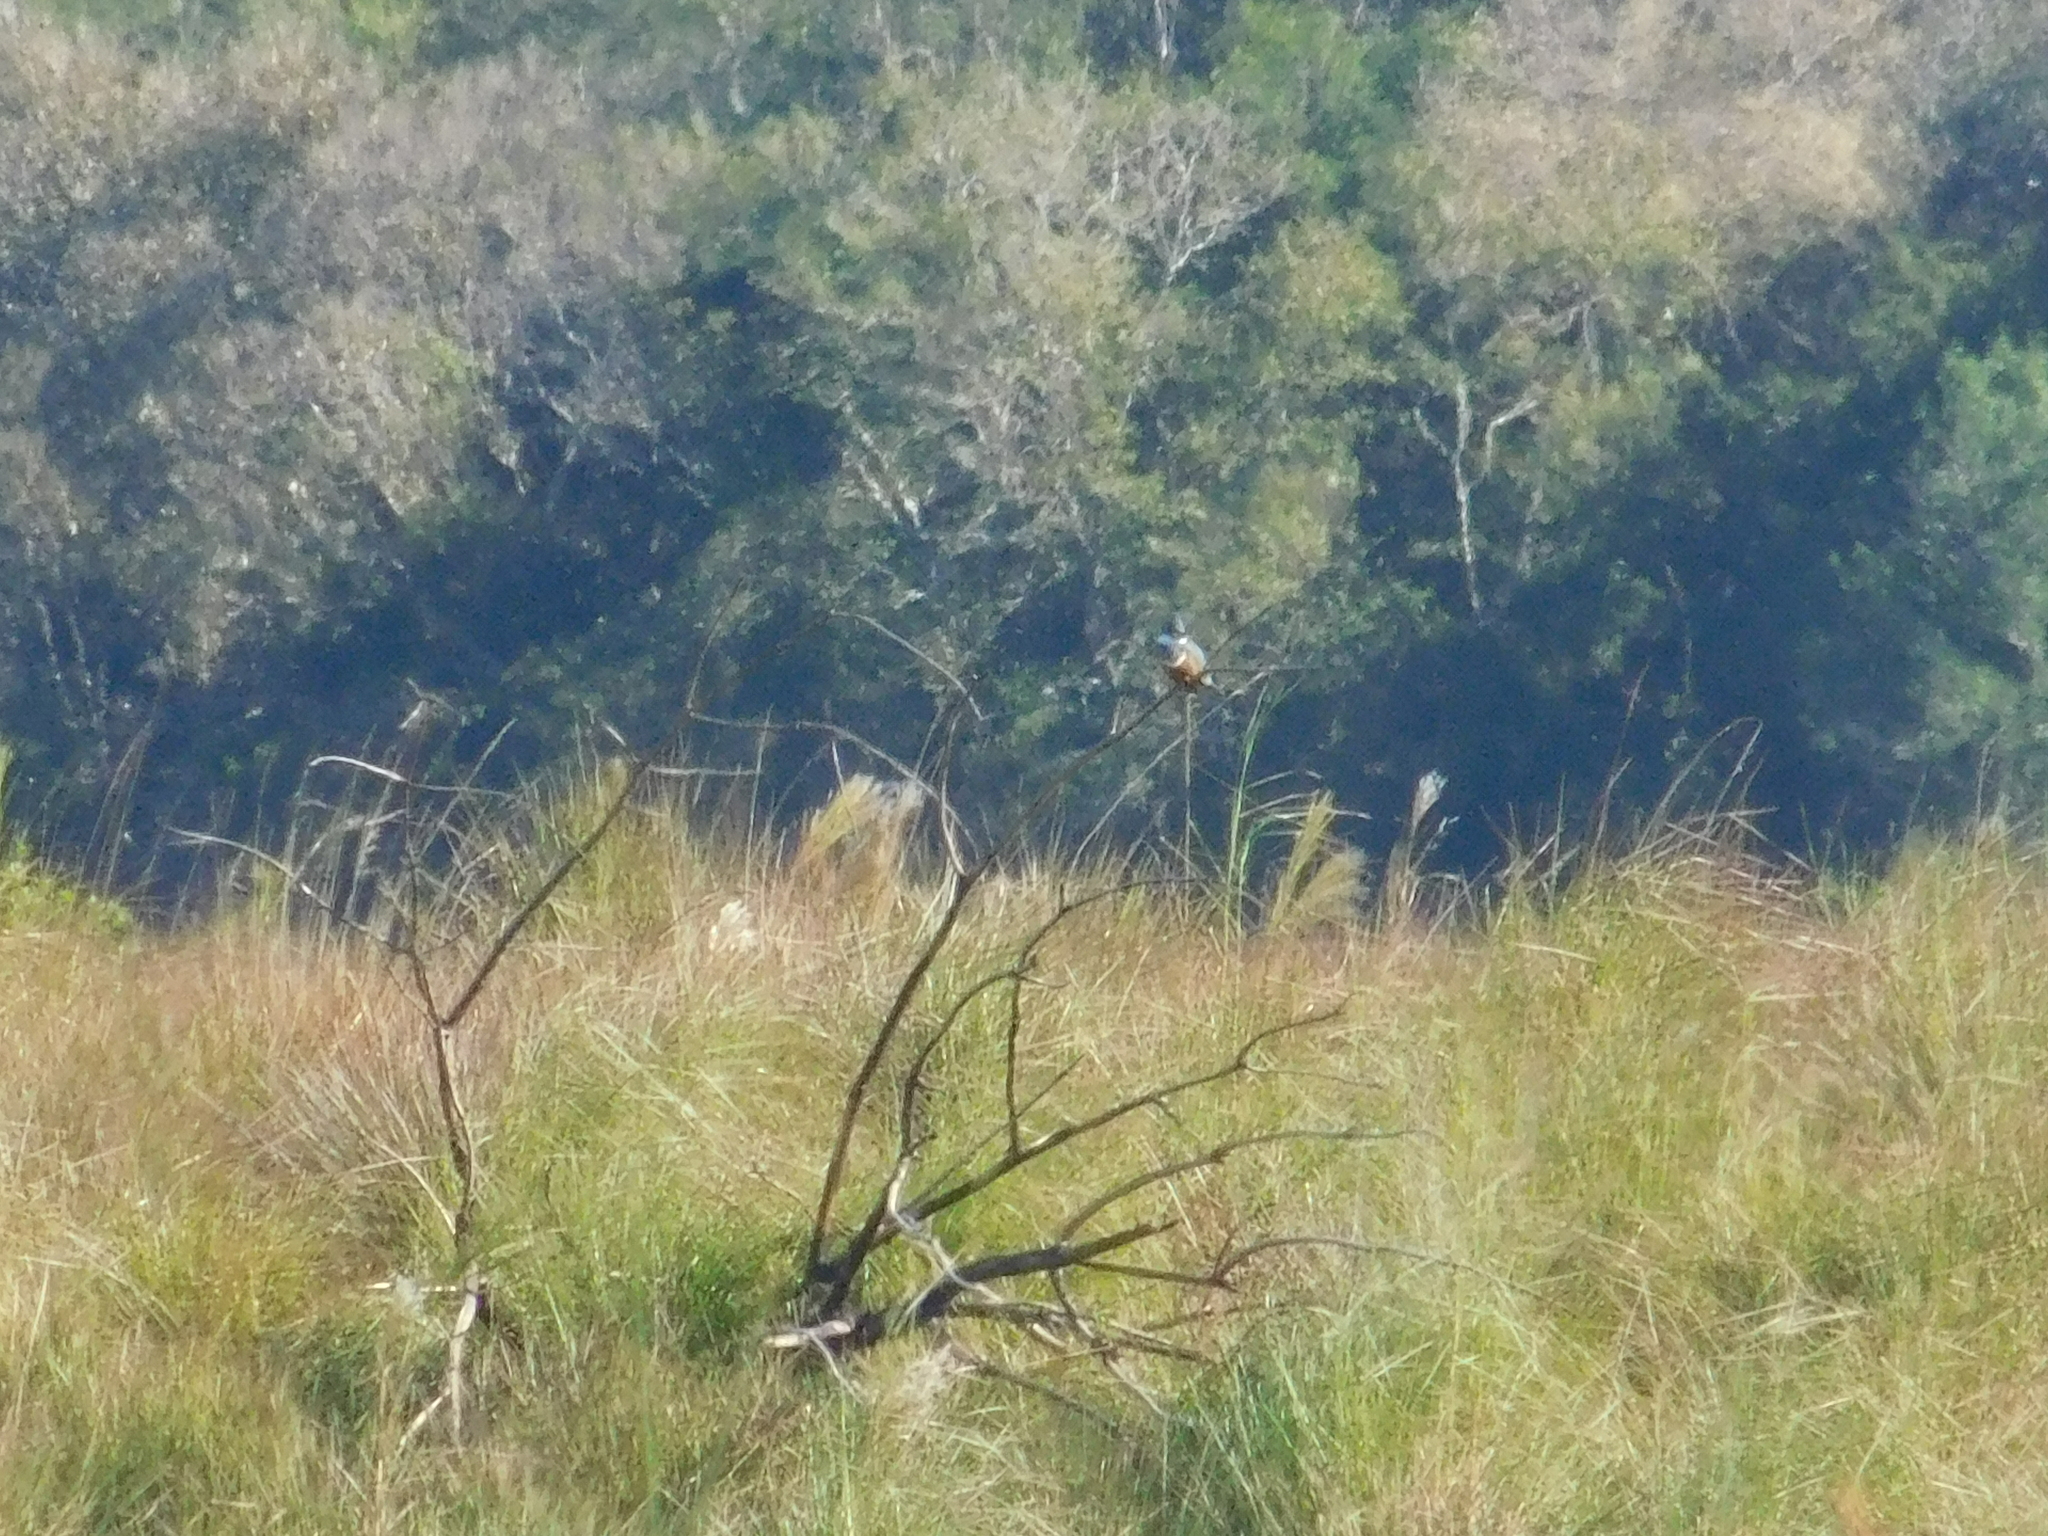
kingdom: Animalia
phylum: Chordata
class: Aves
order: Coraciiformes
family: Alcedinidae
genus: Megaceryle
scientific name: Megaceryle torquata
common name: Ringed kingfisher
